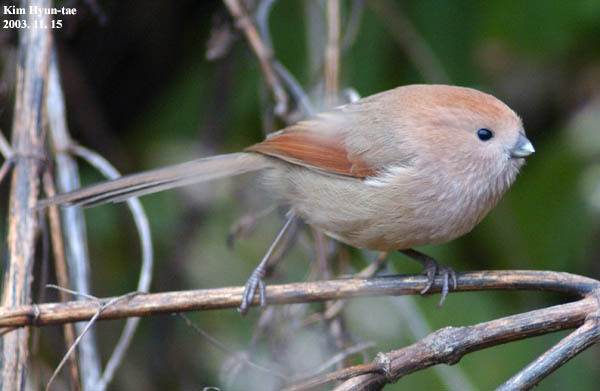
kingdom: Animalia
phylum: Chordata
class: Aves
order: Passeriformes
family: Sylviidae
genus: Sinosuthora
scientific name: Sinosuthora webbiana
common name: Vinous-throated parrotbill
